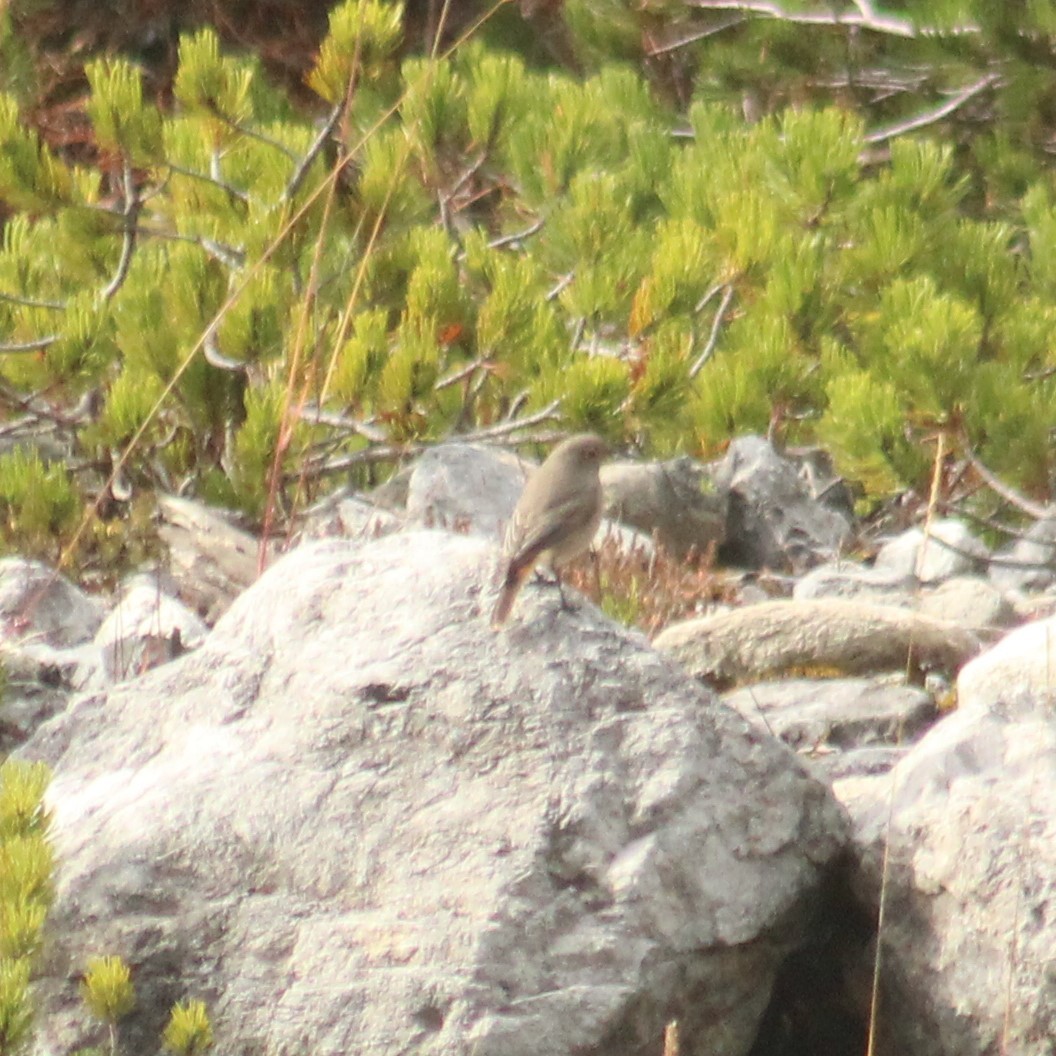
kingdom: Animalia
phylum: Chordata
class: Aves
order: Passeriformes
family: Muscicapidae
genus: Phoenicurus
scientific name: Phoenicurus ochruros
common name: Black redstart
